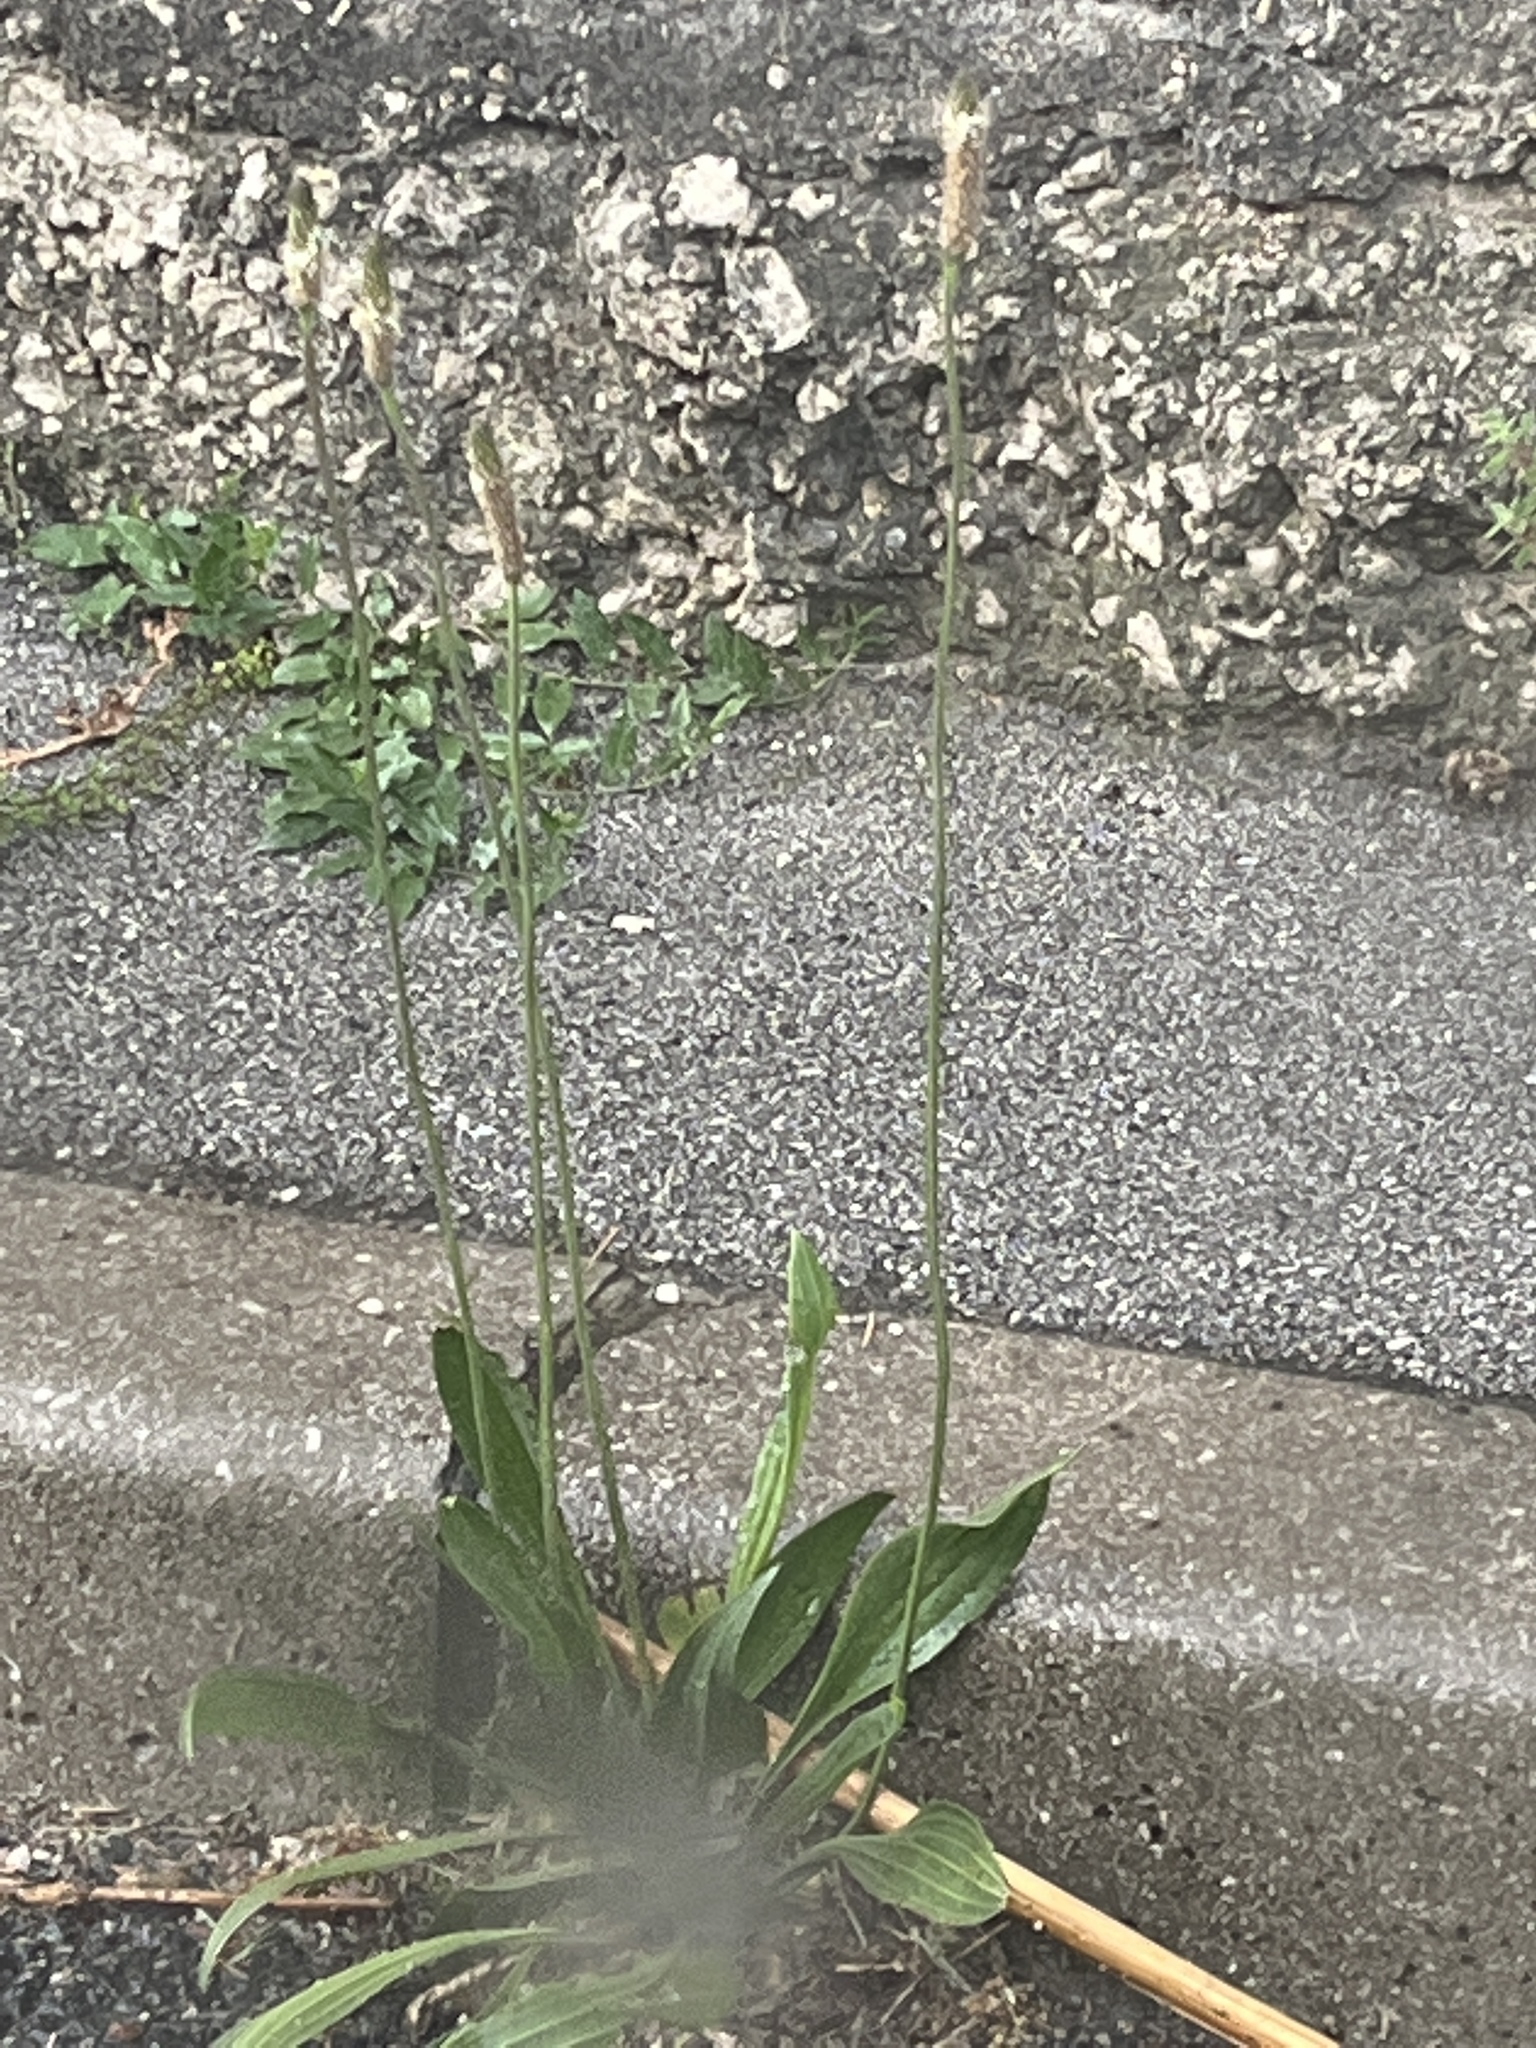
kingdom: Plantae
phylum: Tracheophyta
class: Magnoliopsida
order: Lamiales
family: Plantaginaceae
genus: Plantago
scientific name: Plantago lanceolata
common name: Ribwort plantain
